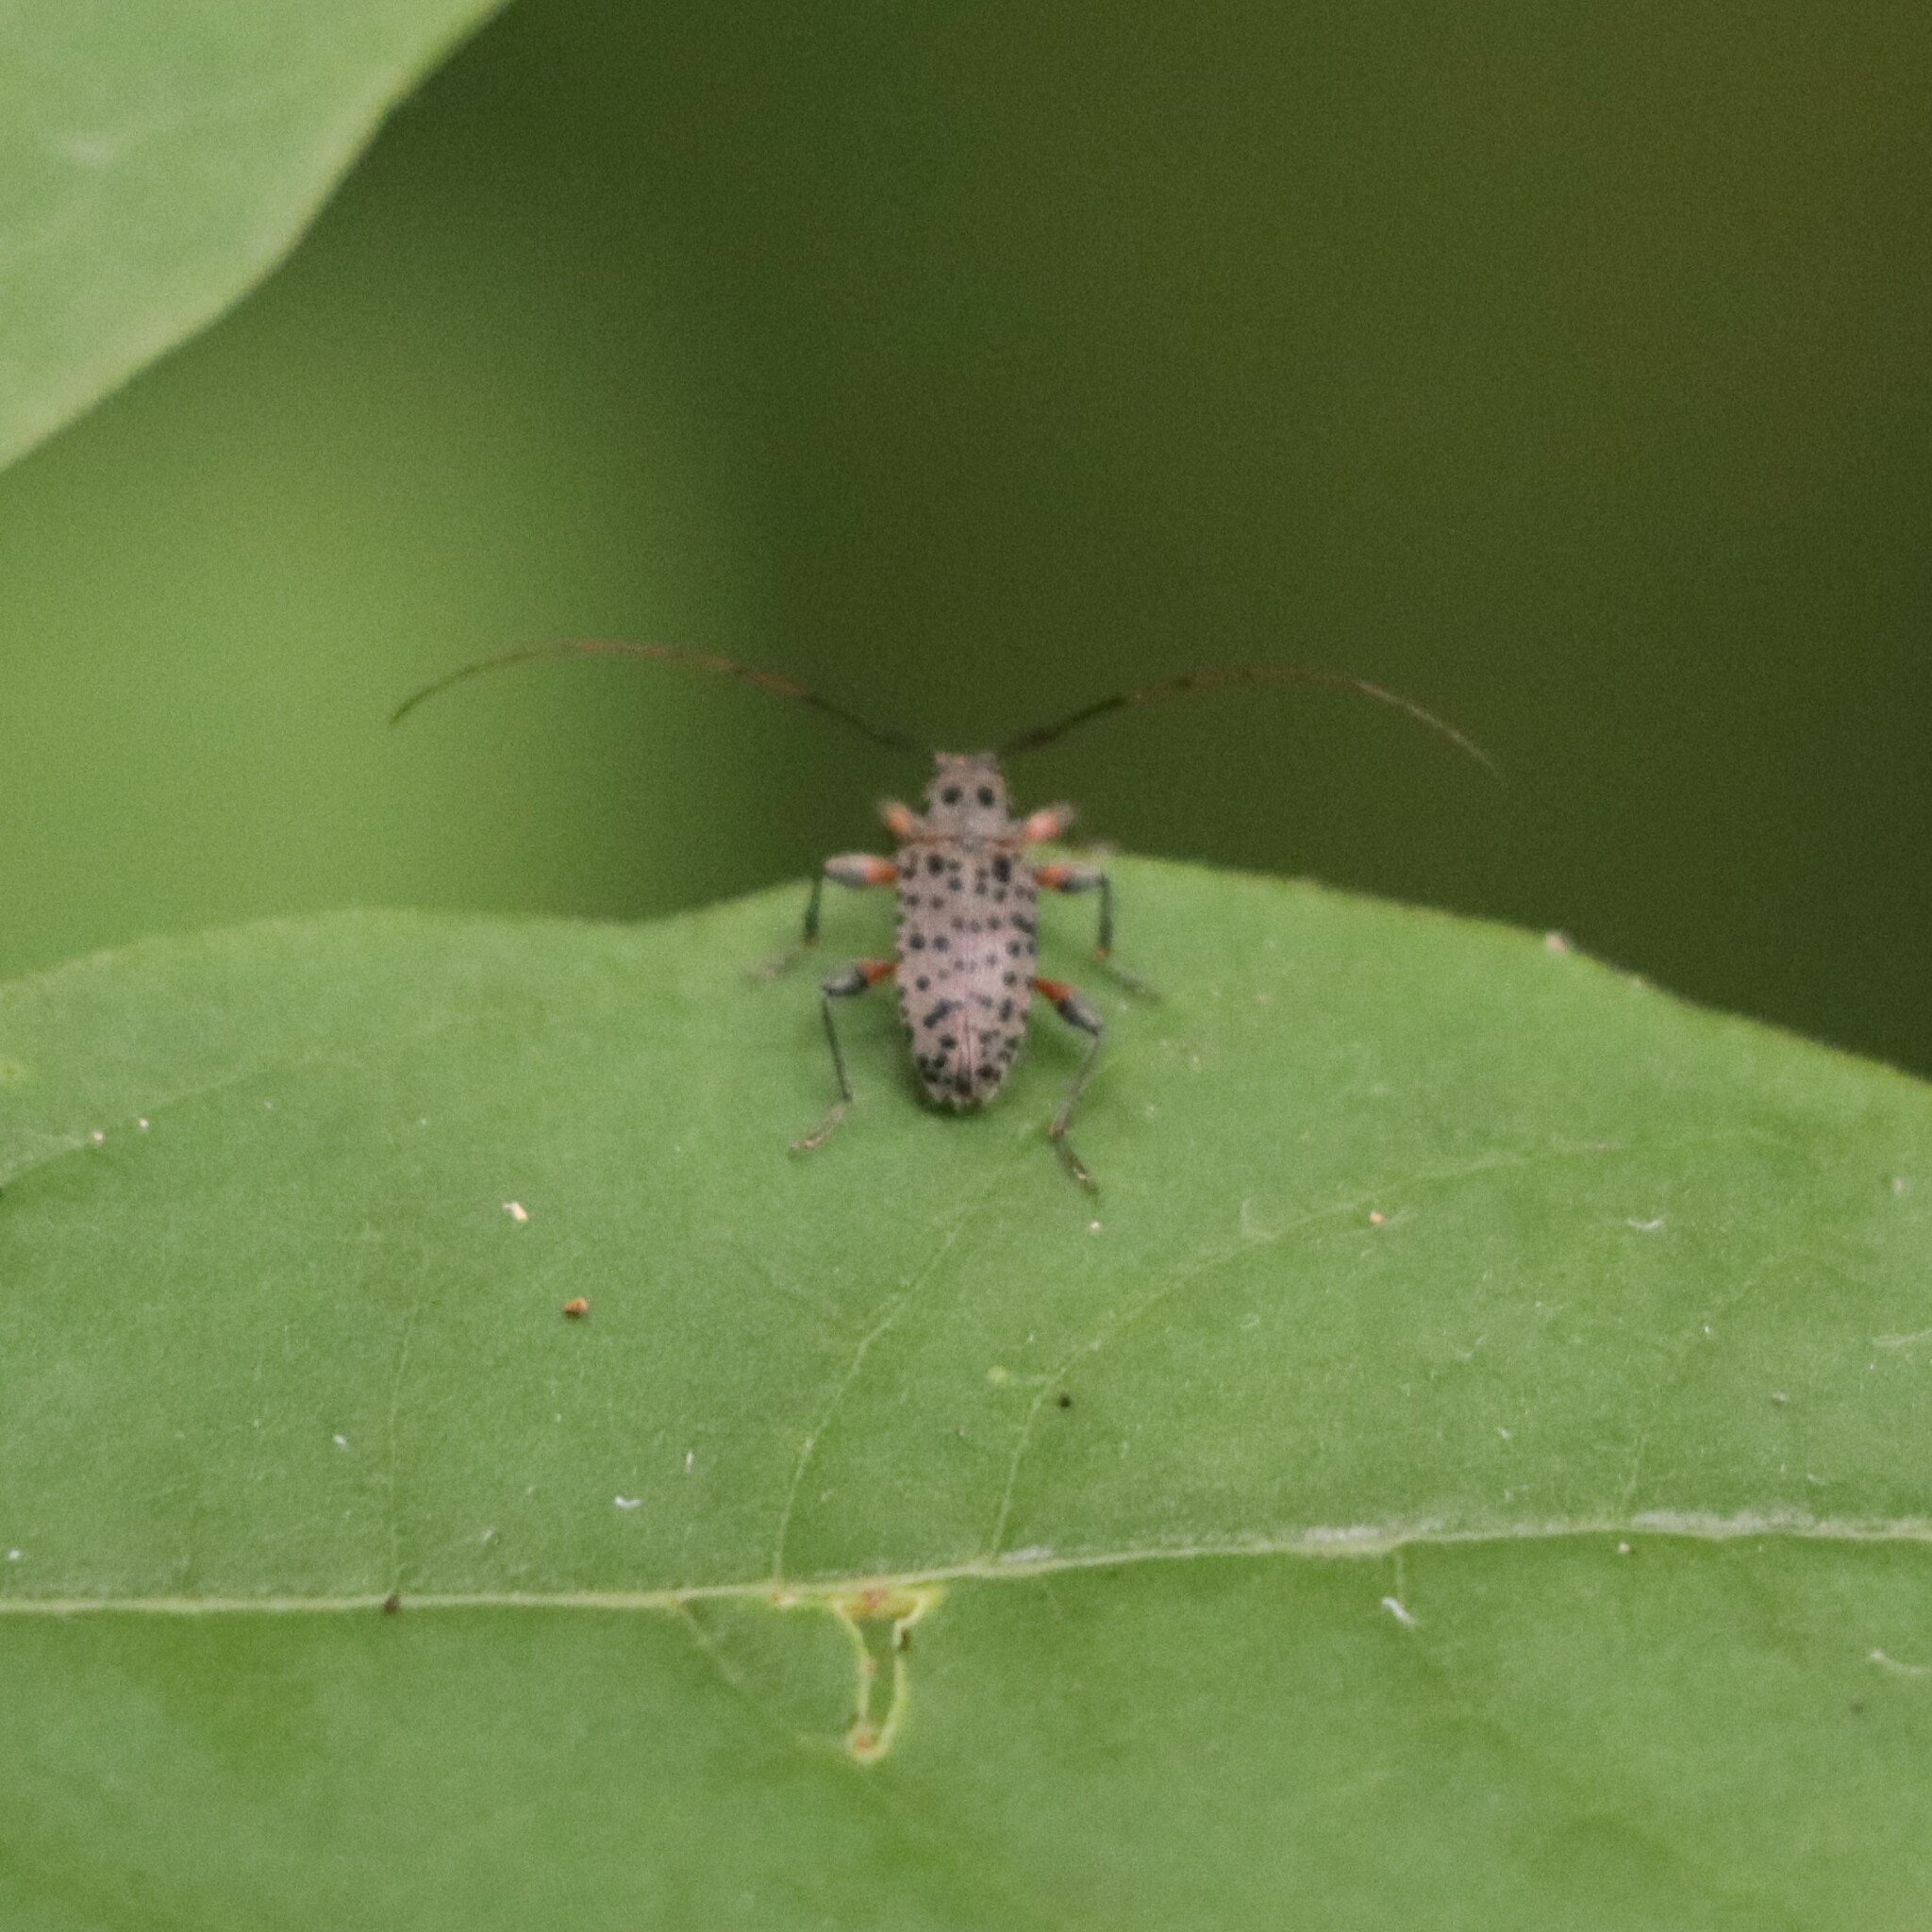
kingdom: Animalia
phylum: Arthropoda
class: Insecta
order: Coleoptera
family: Cerambycidae
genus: Hyperplatys
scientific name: Hyperplatys aspersa
